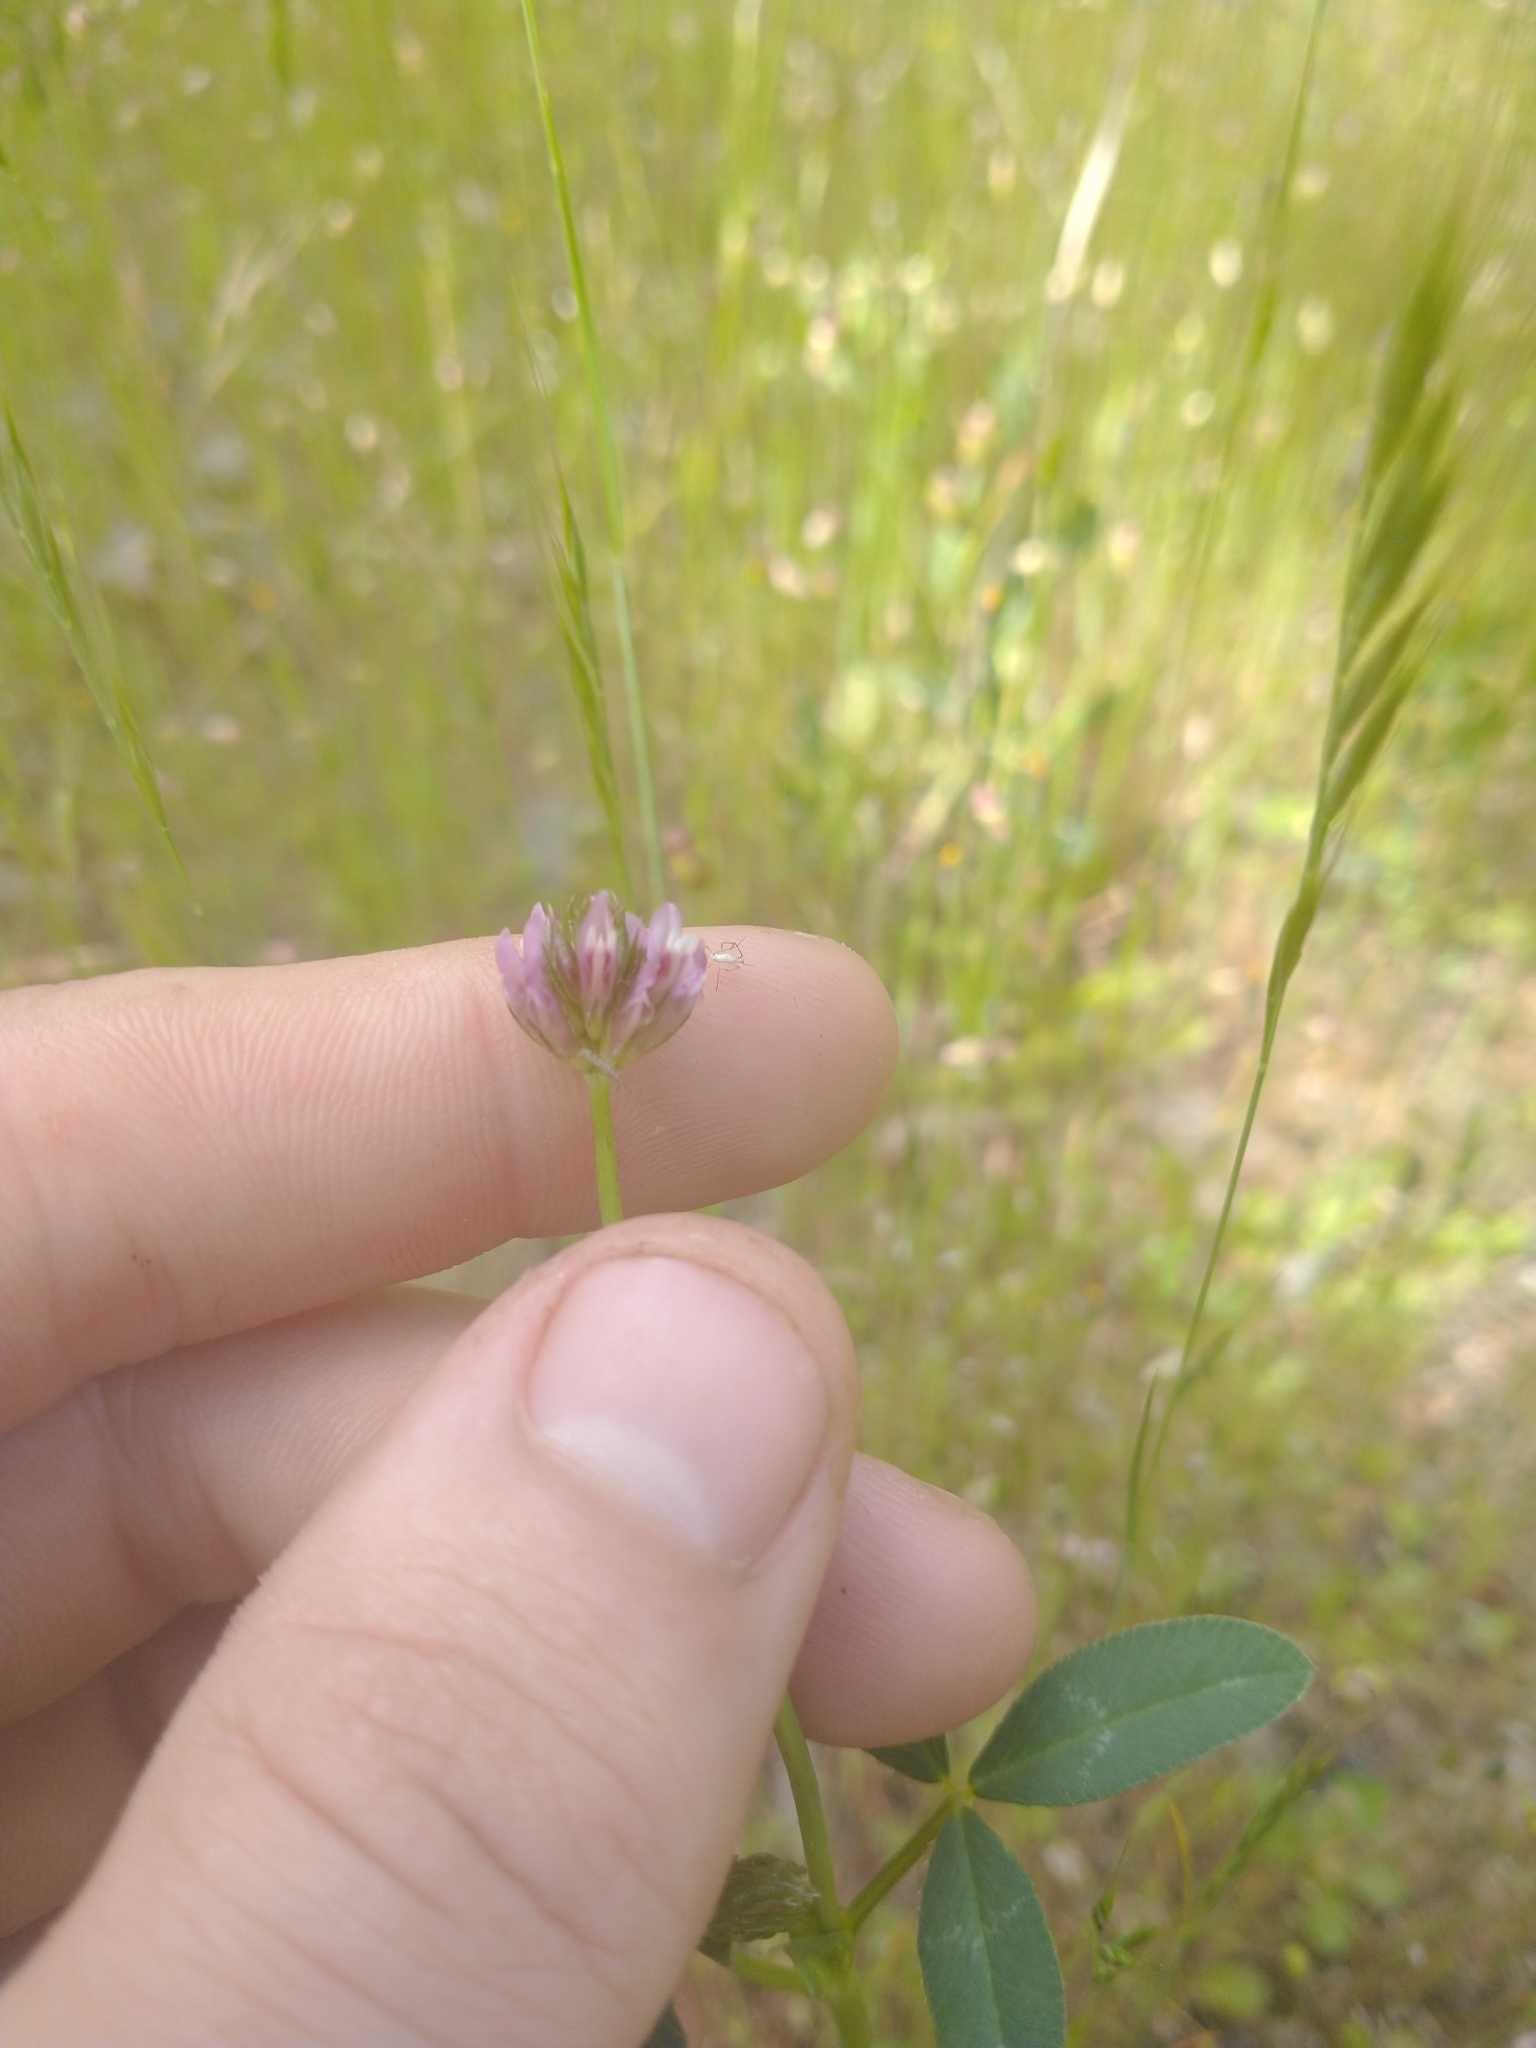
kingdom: Plantae
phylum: Tracheophyta
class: Magnoliopsida
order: Fabales
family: Fabaceae
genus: Trifolium
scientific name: Trifolium ciliolatum
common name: Foothill clover
